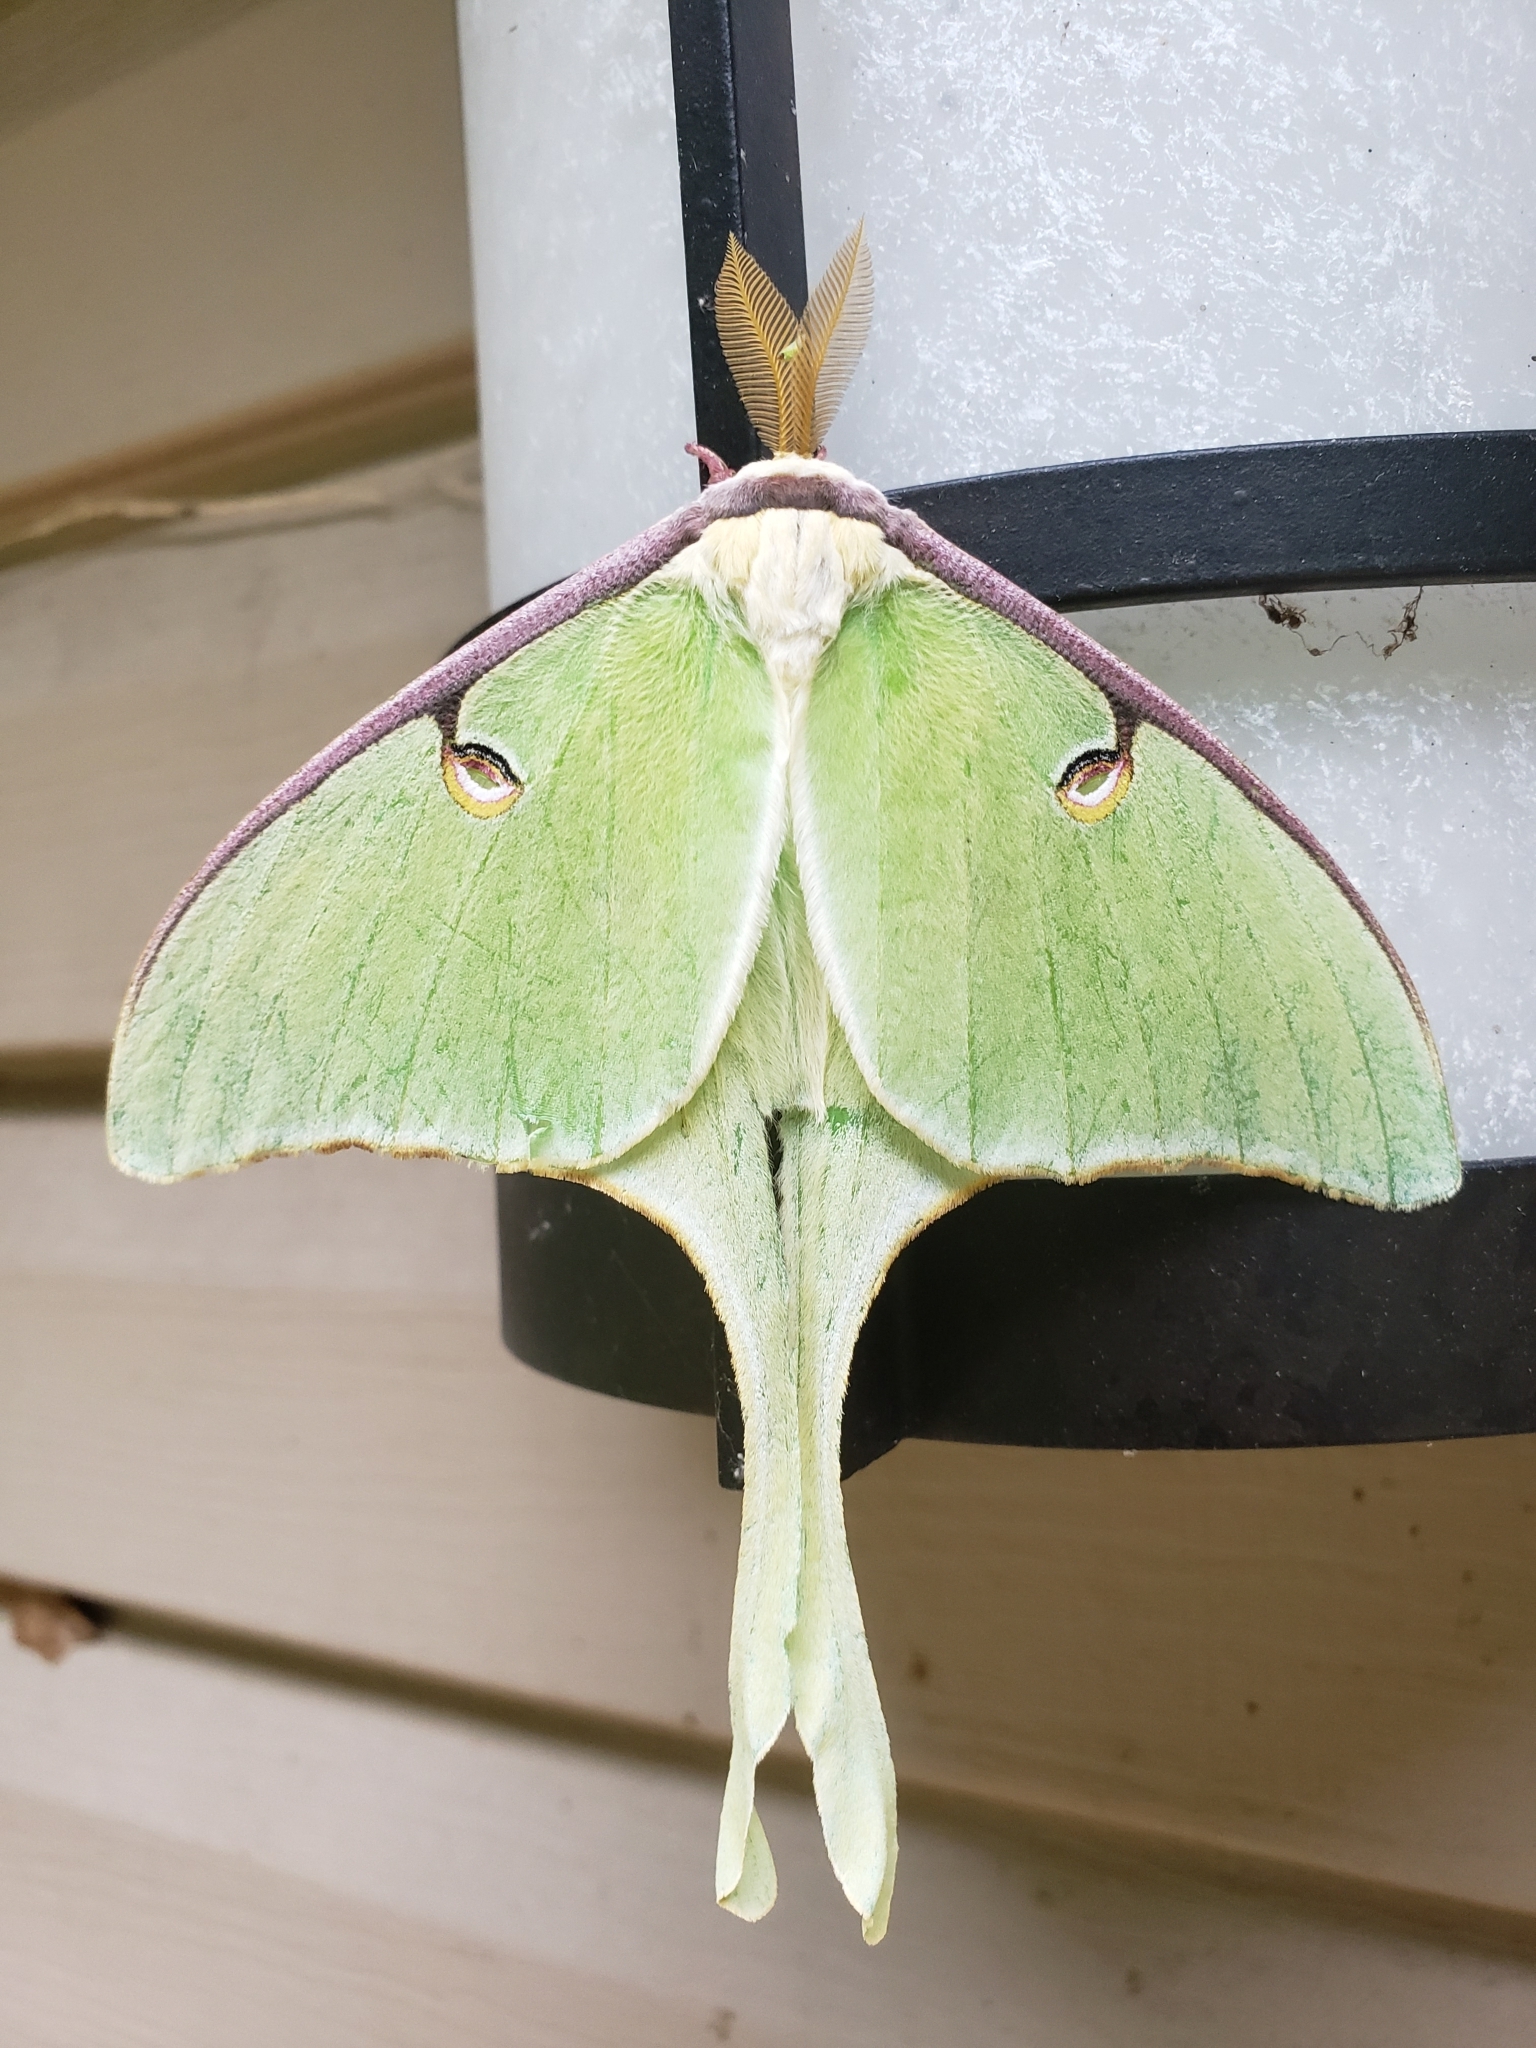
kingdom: Animalia
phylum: Arthropoda
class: Insecta
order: Lepidoptera
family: Saturniidae
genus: Actias
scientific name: Actias luna
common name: Luna moth
